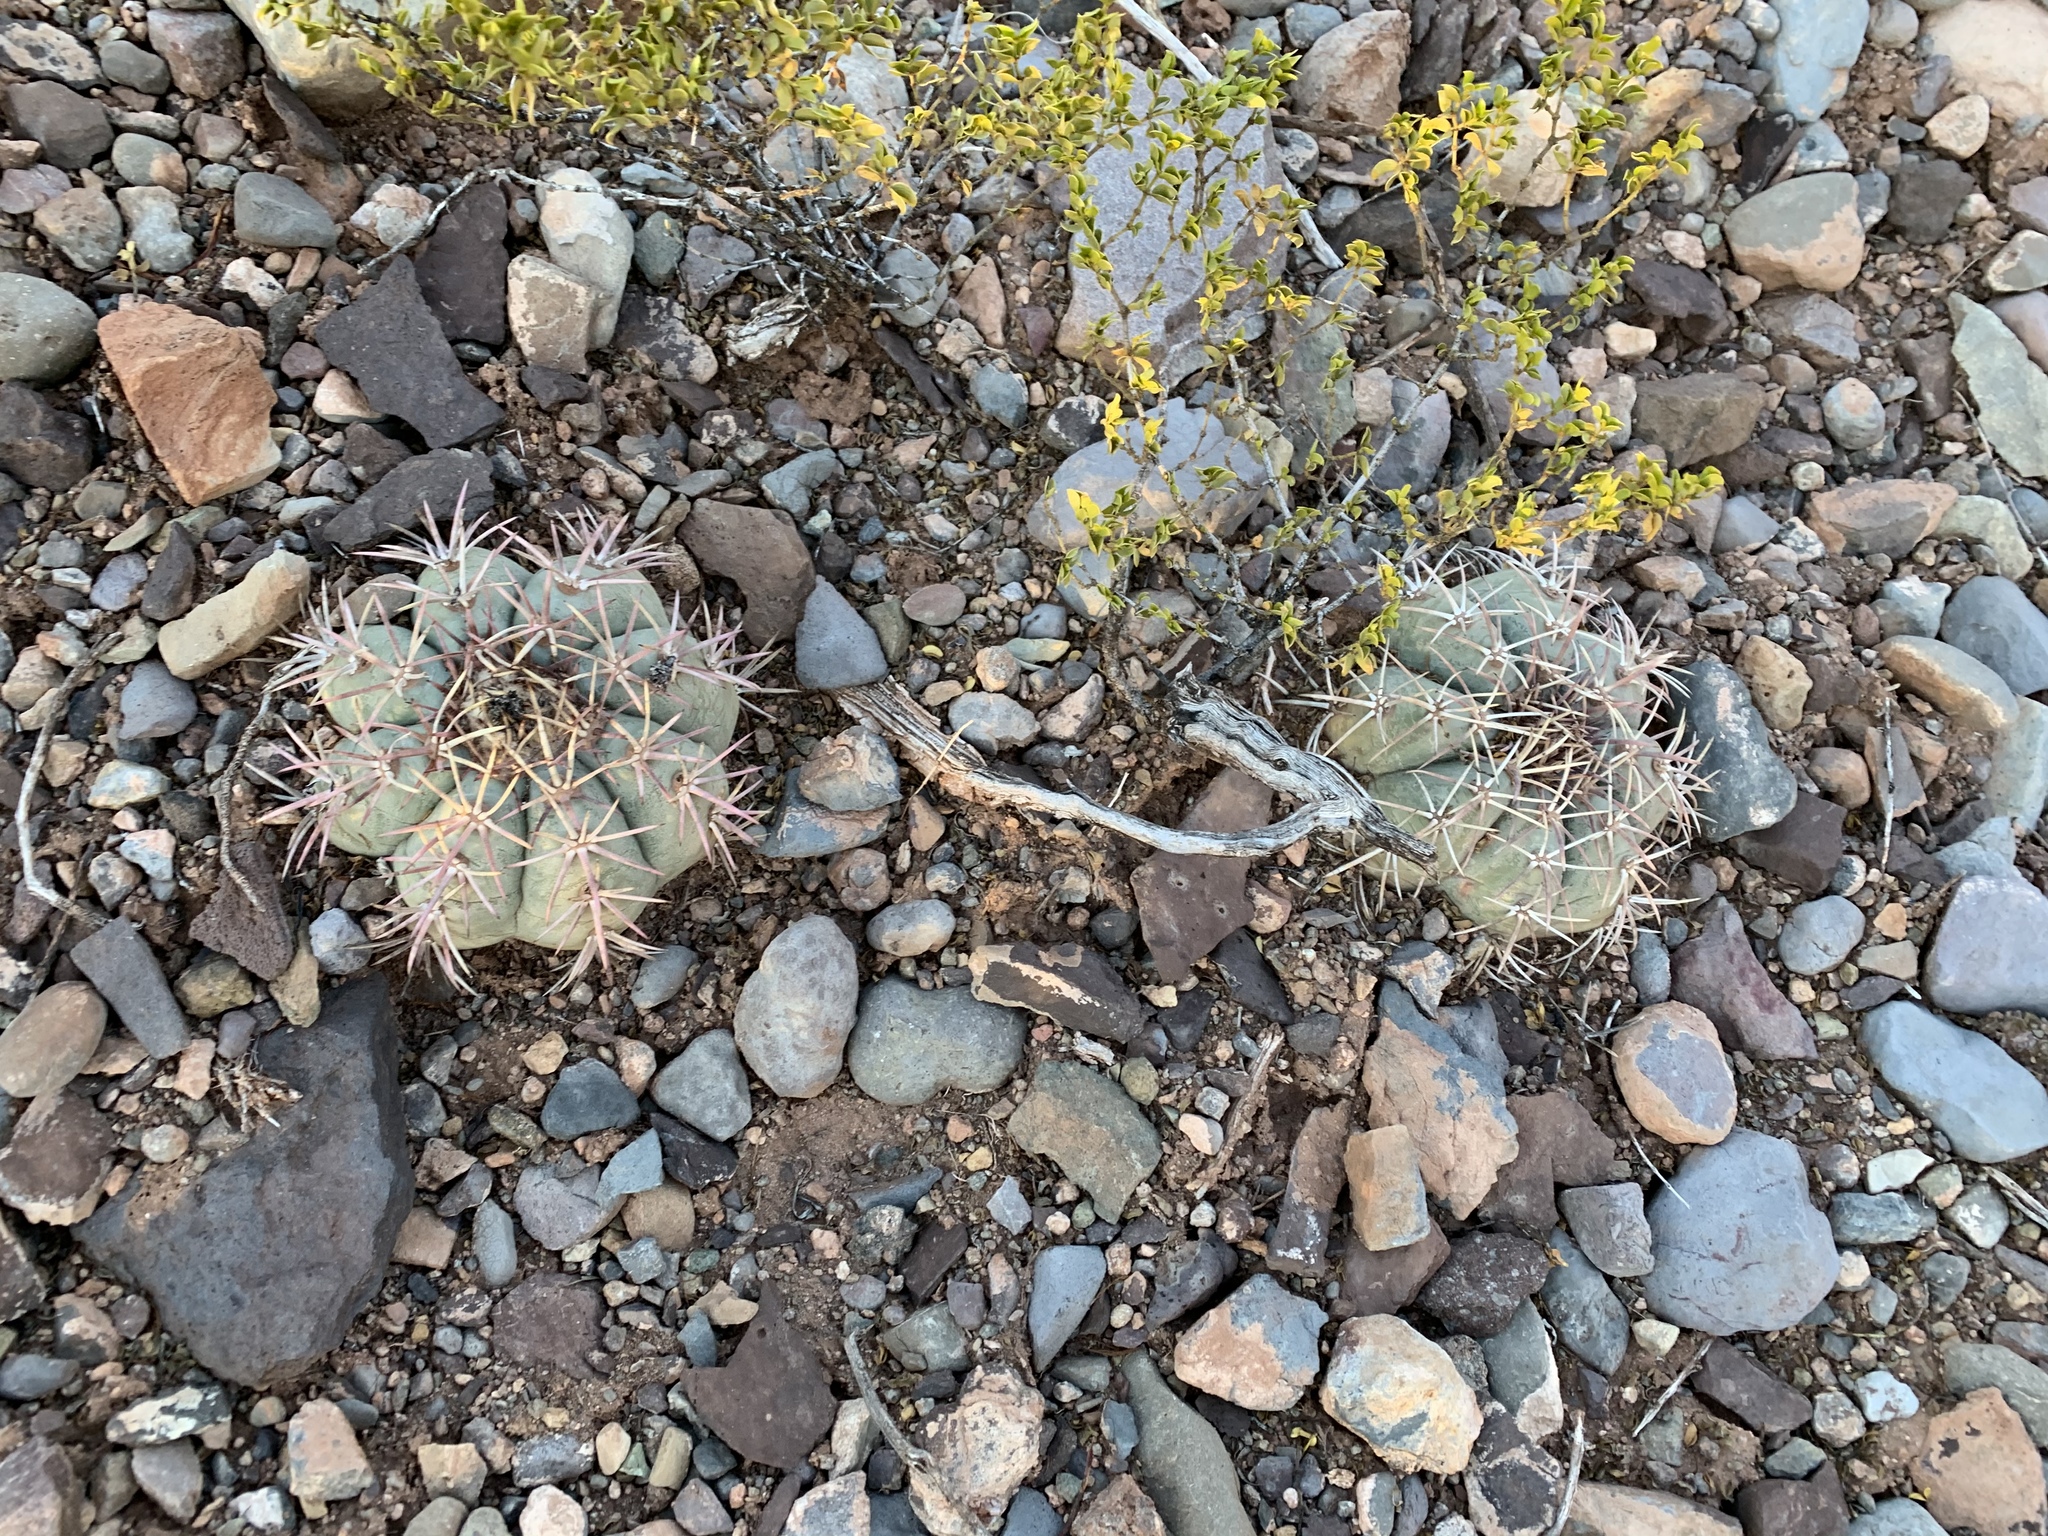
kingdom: Plantae
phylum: Tracheophyta
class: Magnoliopsida
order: Caryophyllales
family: Cactaceae
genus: Echinocactus
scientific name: Echinocactus horizonthalonius
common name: Devilshead
